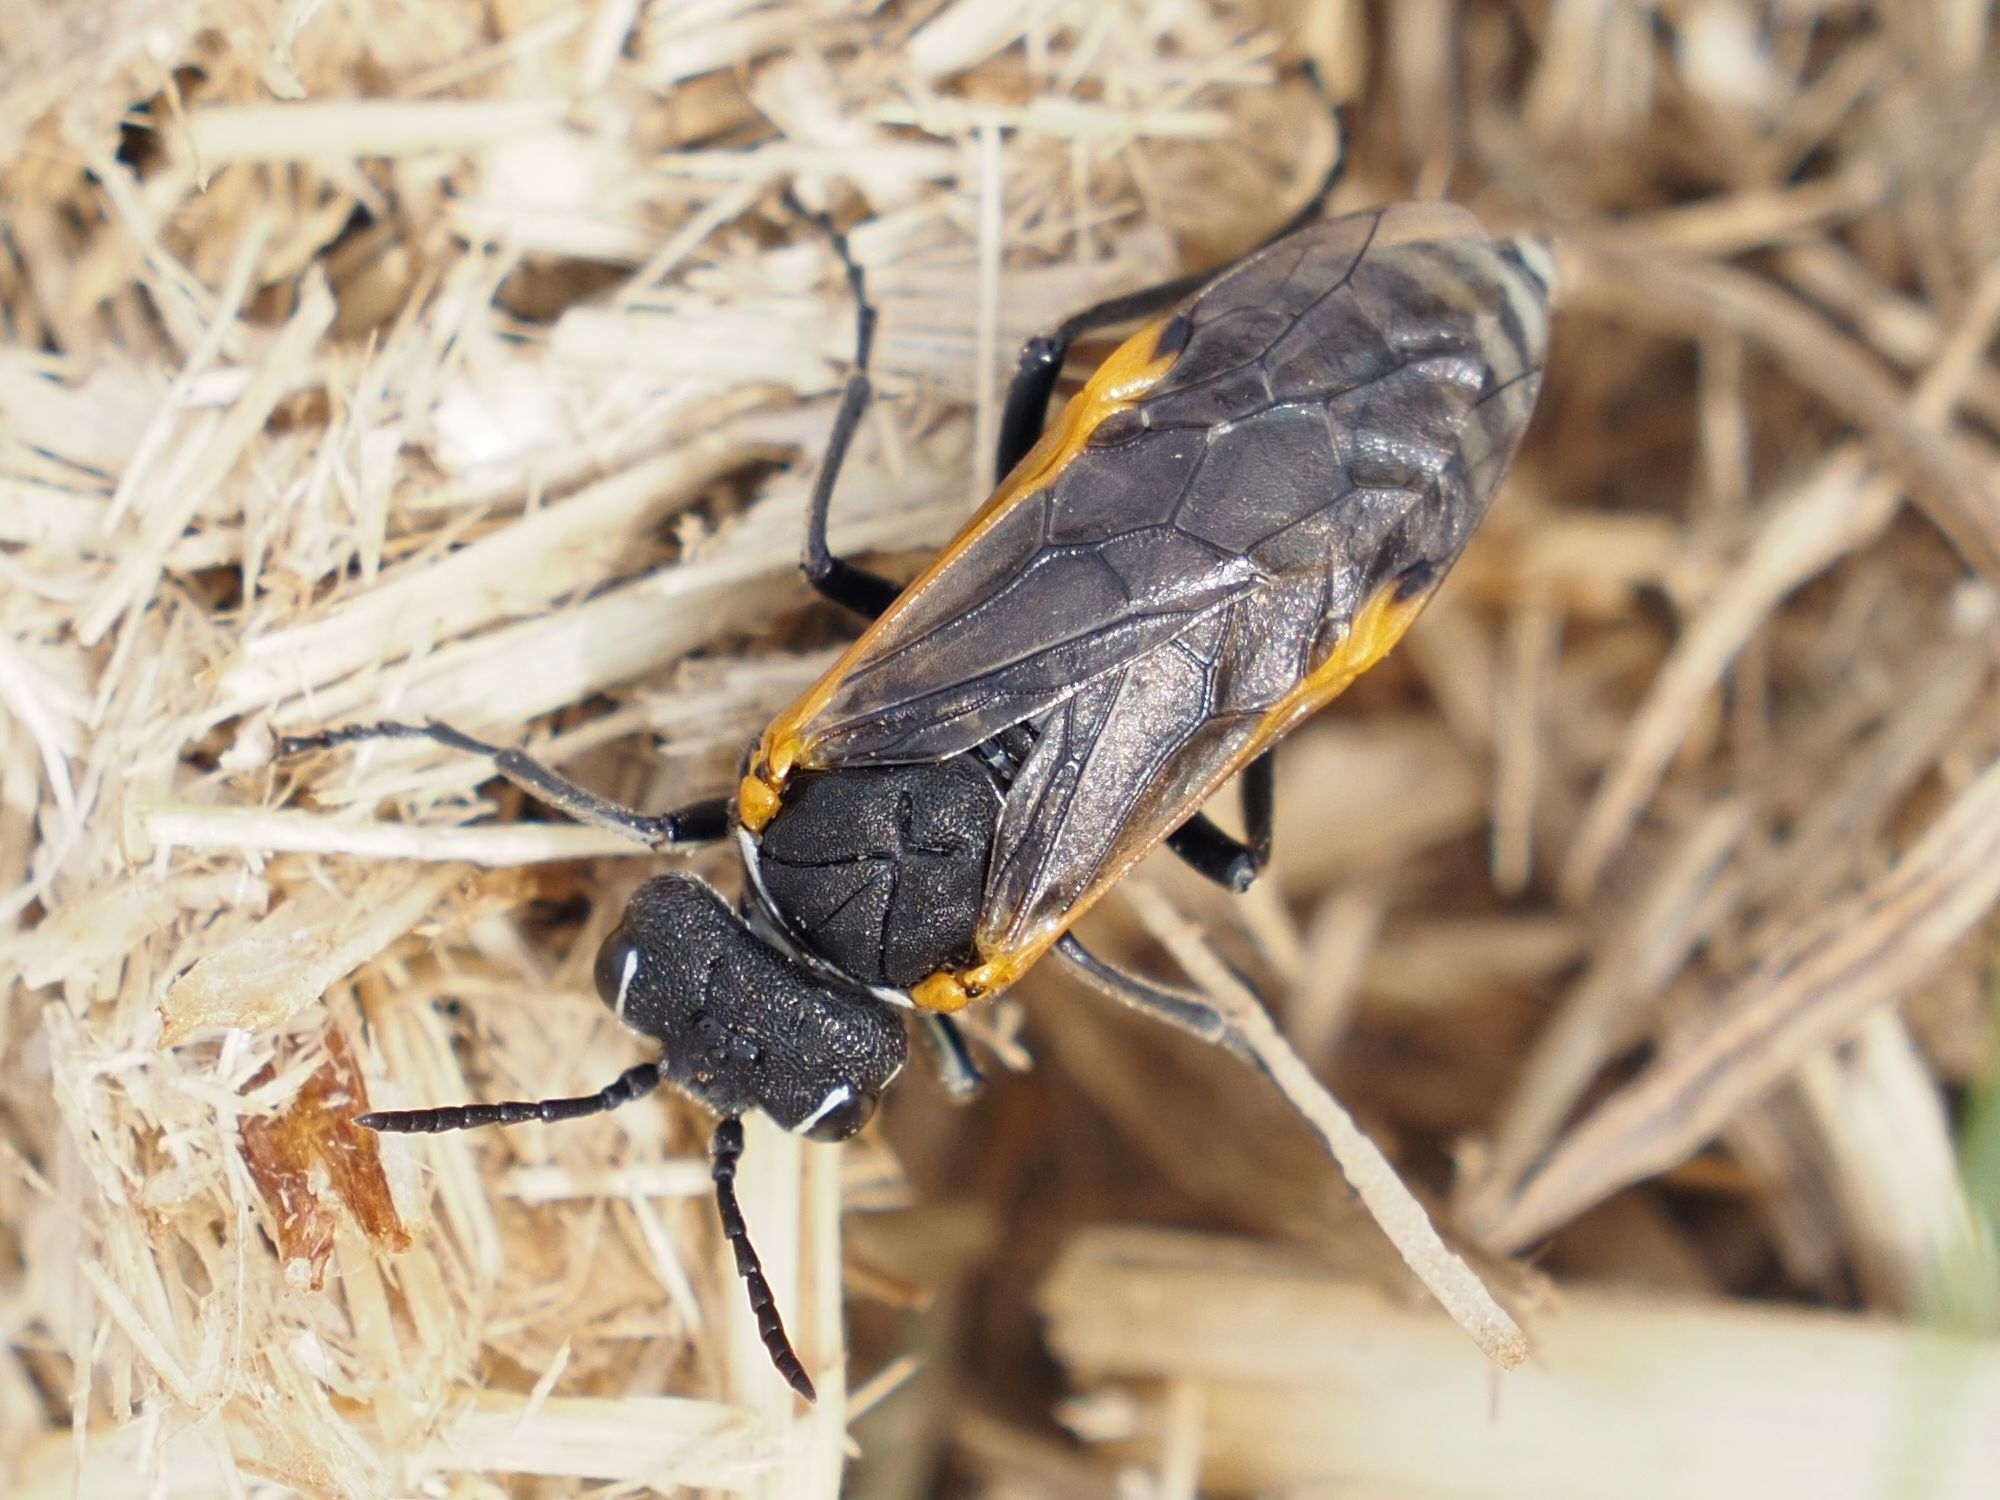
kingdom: Animalia
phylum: Arthropoda
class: Insecta
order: Hymenoptera
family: Tenthredinidae
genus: Sciapteryx
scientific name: Sciapteryx costalis
